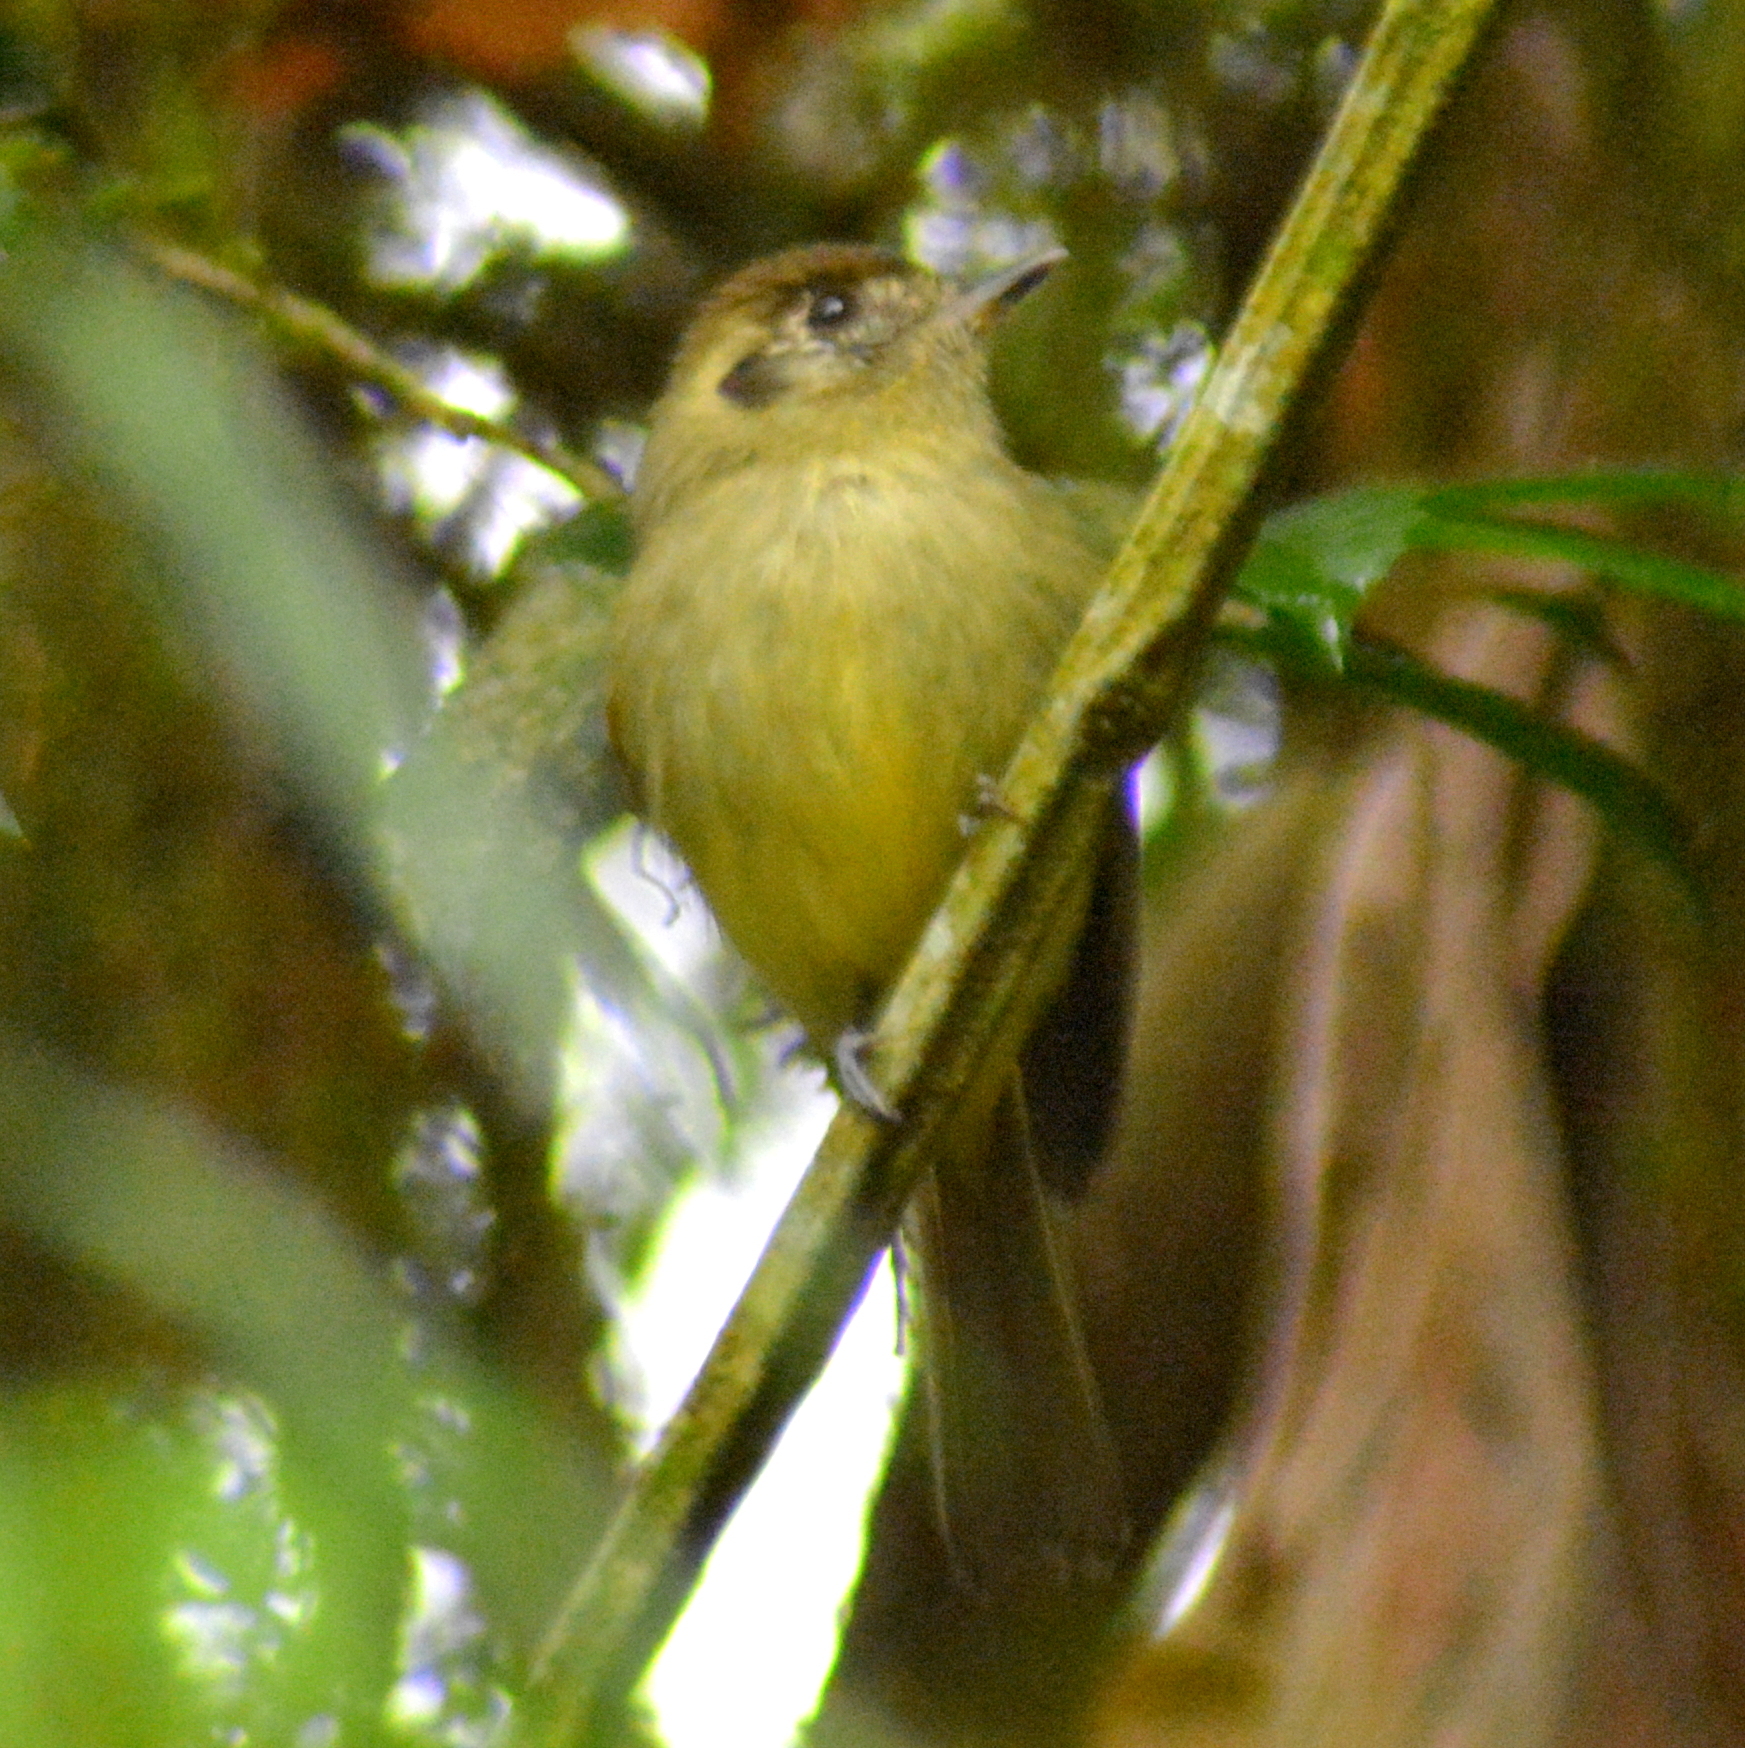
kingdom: Animalia
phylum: Chordata
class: Aves
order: Passeriformes
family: Tyrannidae
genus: Leptopogon
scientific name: Leptopogon amaurocephalus
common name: Sepia-capped flycatcher
